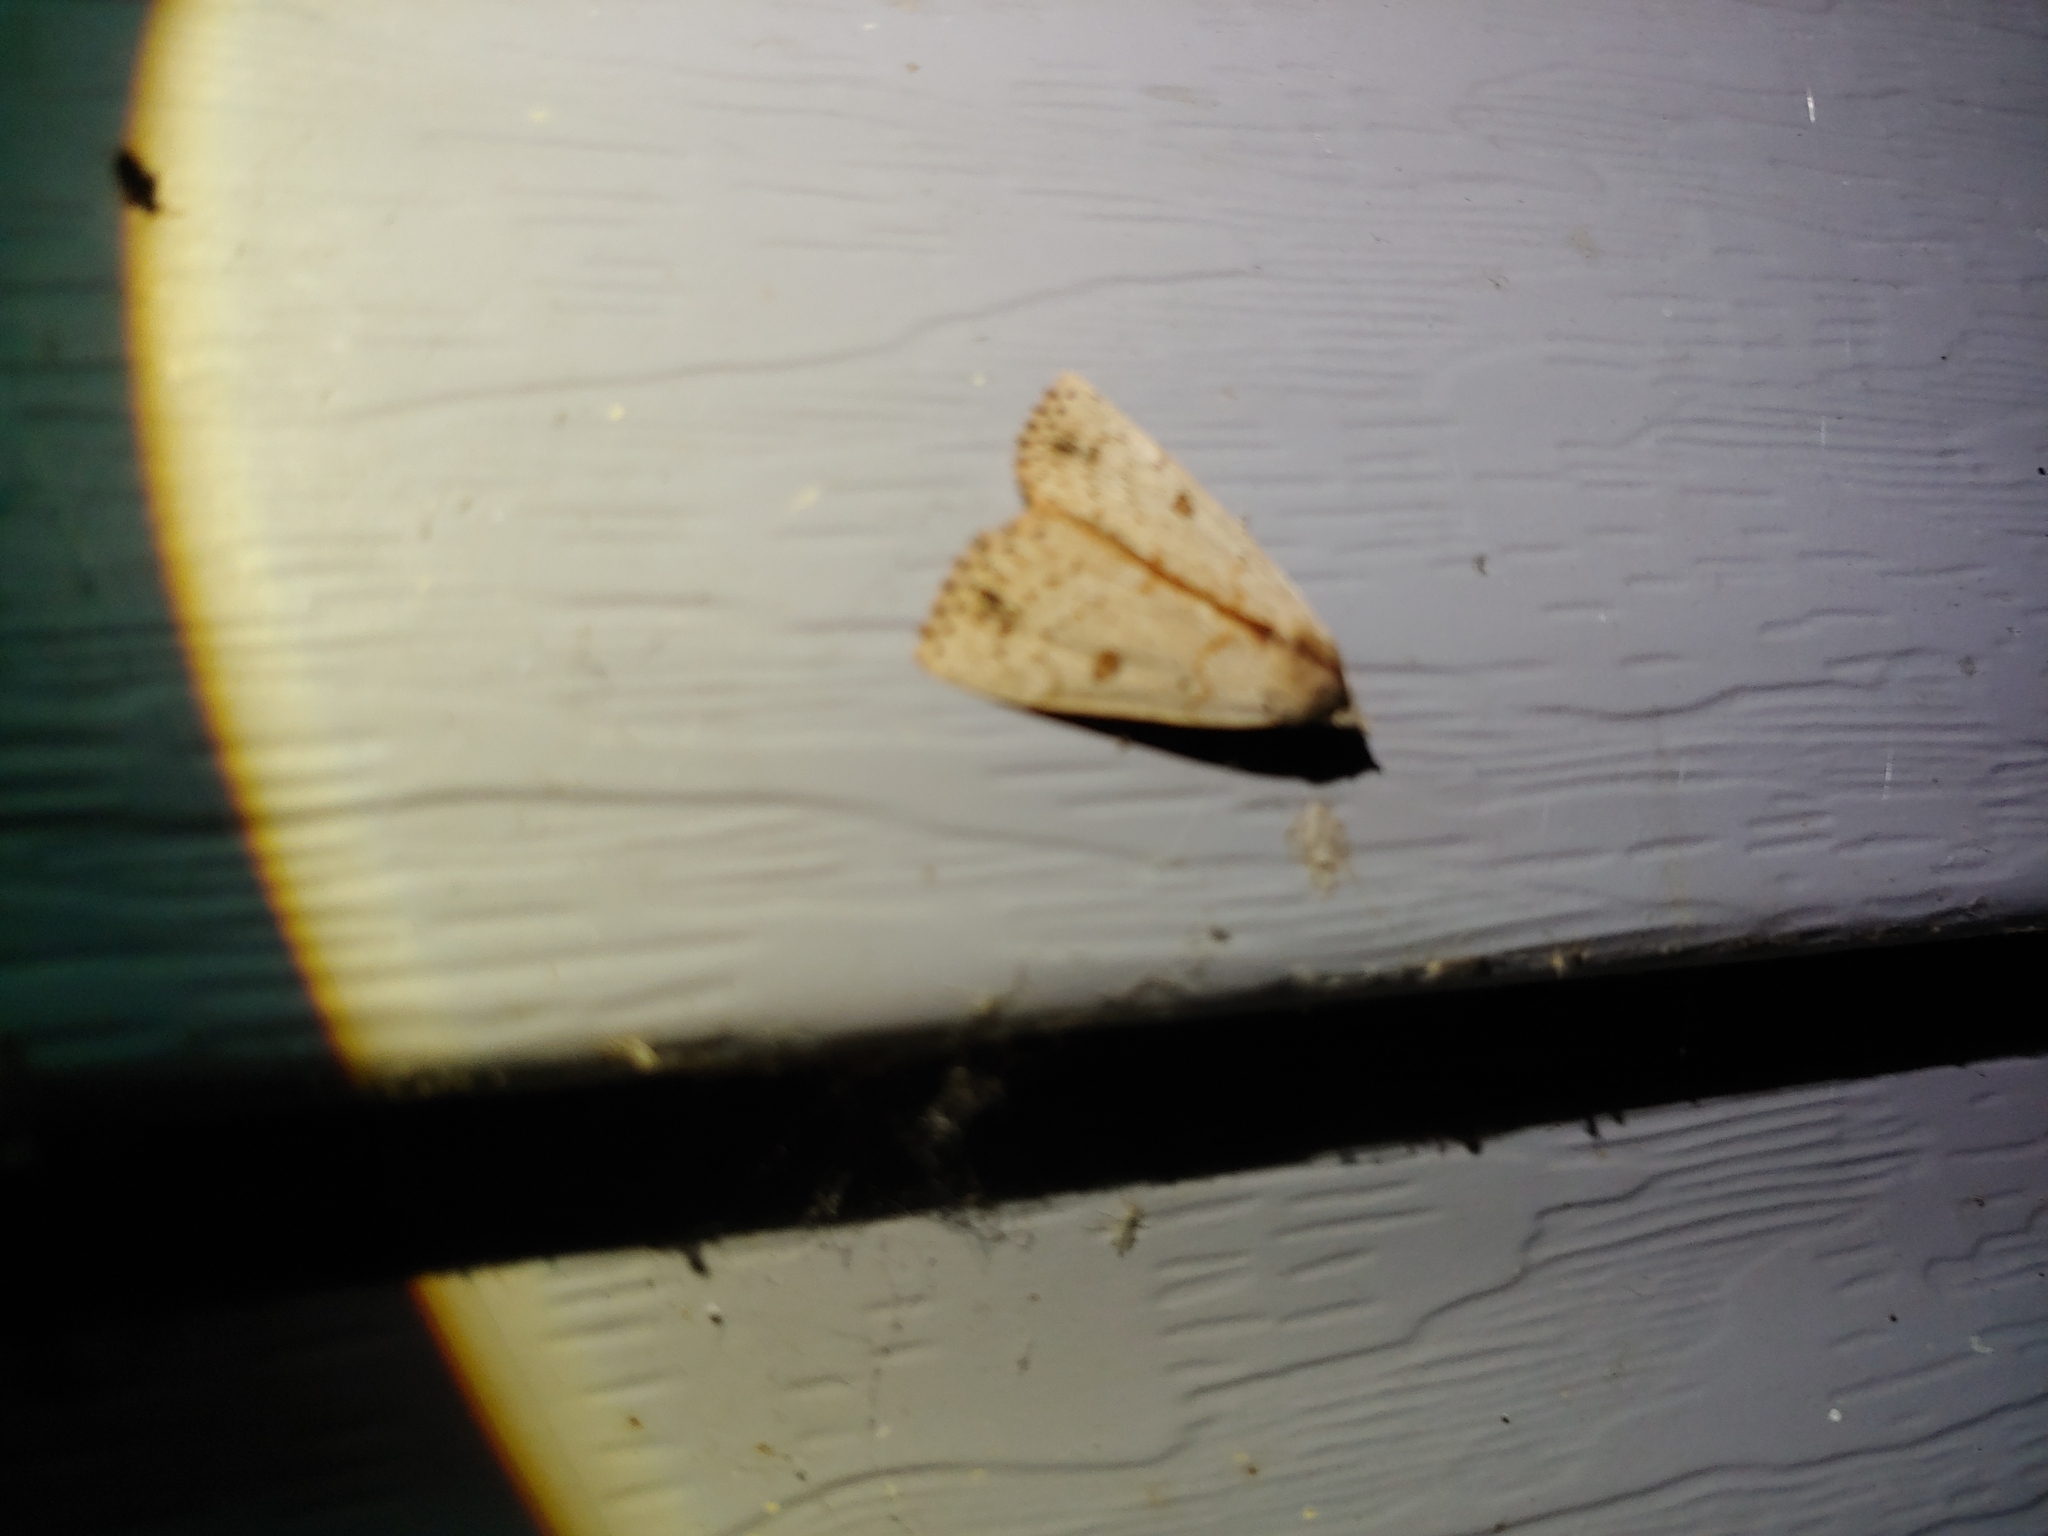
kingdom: Animalia
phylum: Arthropoda
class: Insecta
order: Lepidoptera
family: Erebidae
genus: Scolecocampa
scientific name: Scolecocampa liburna
